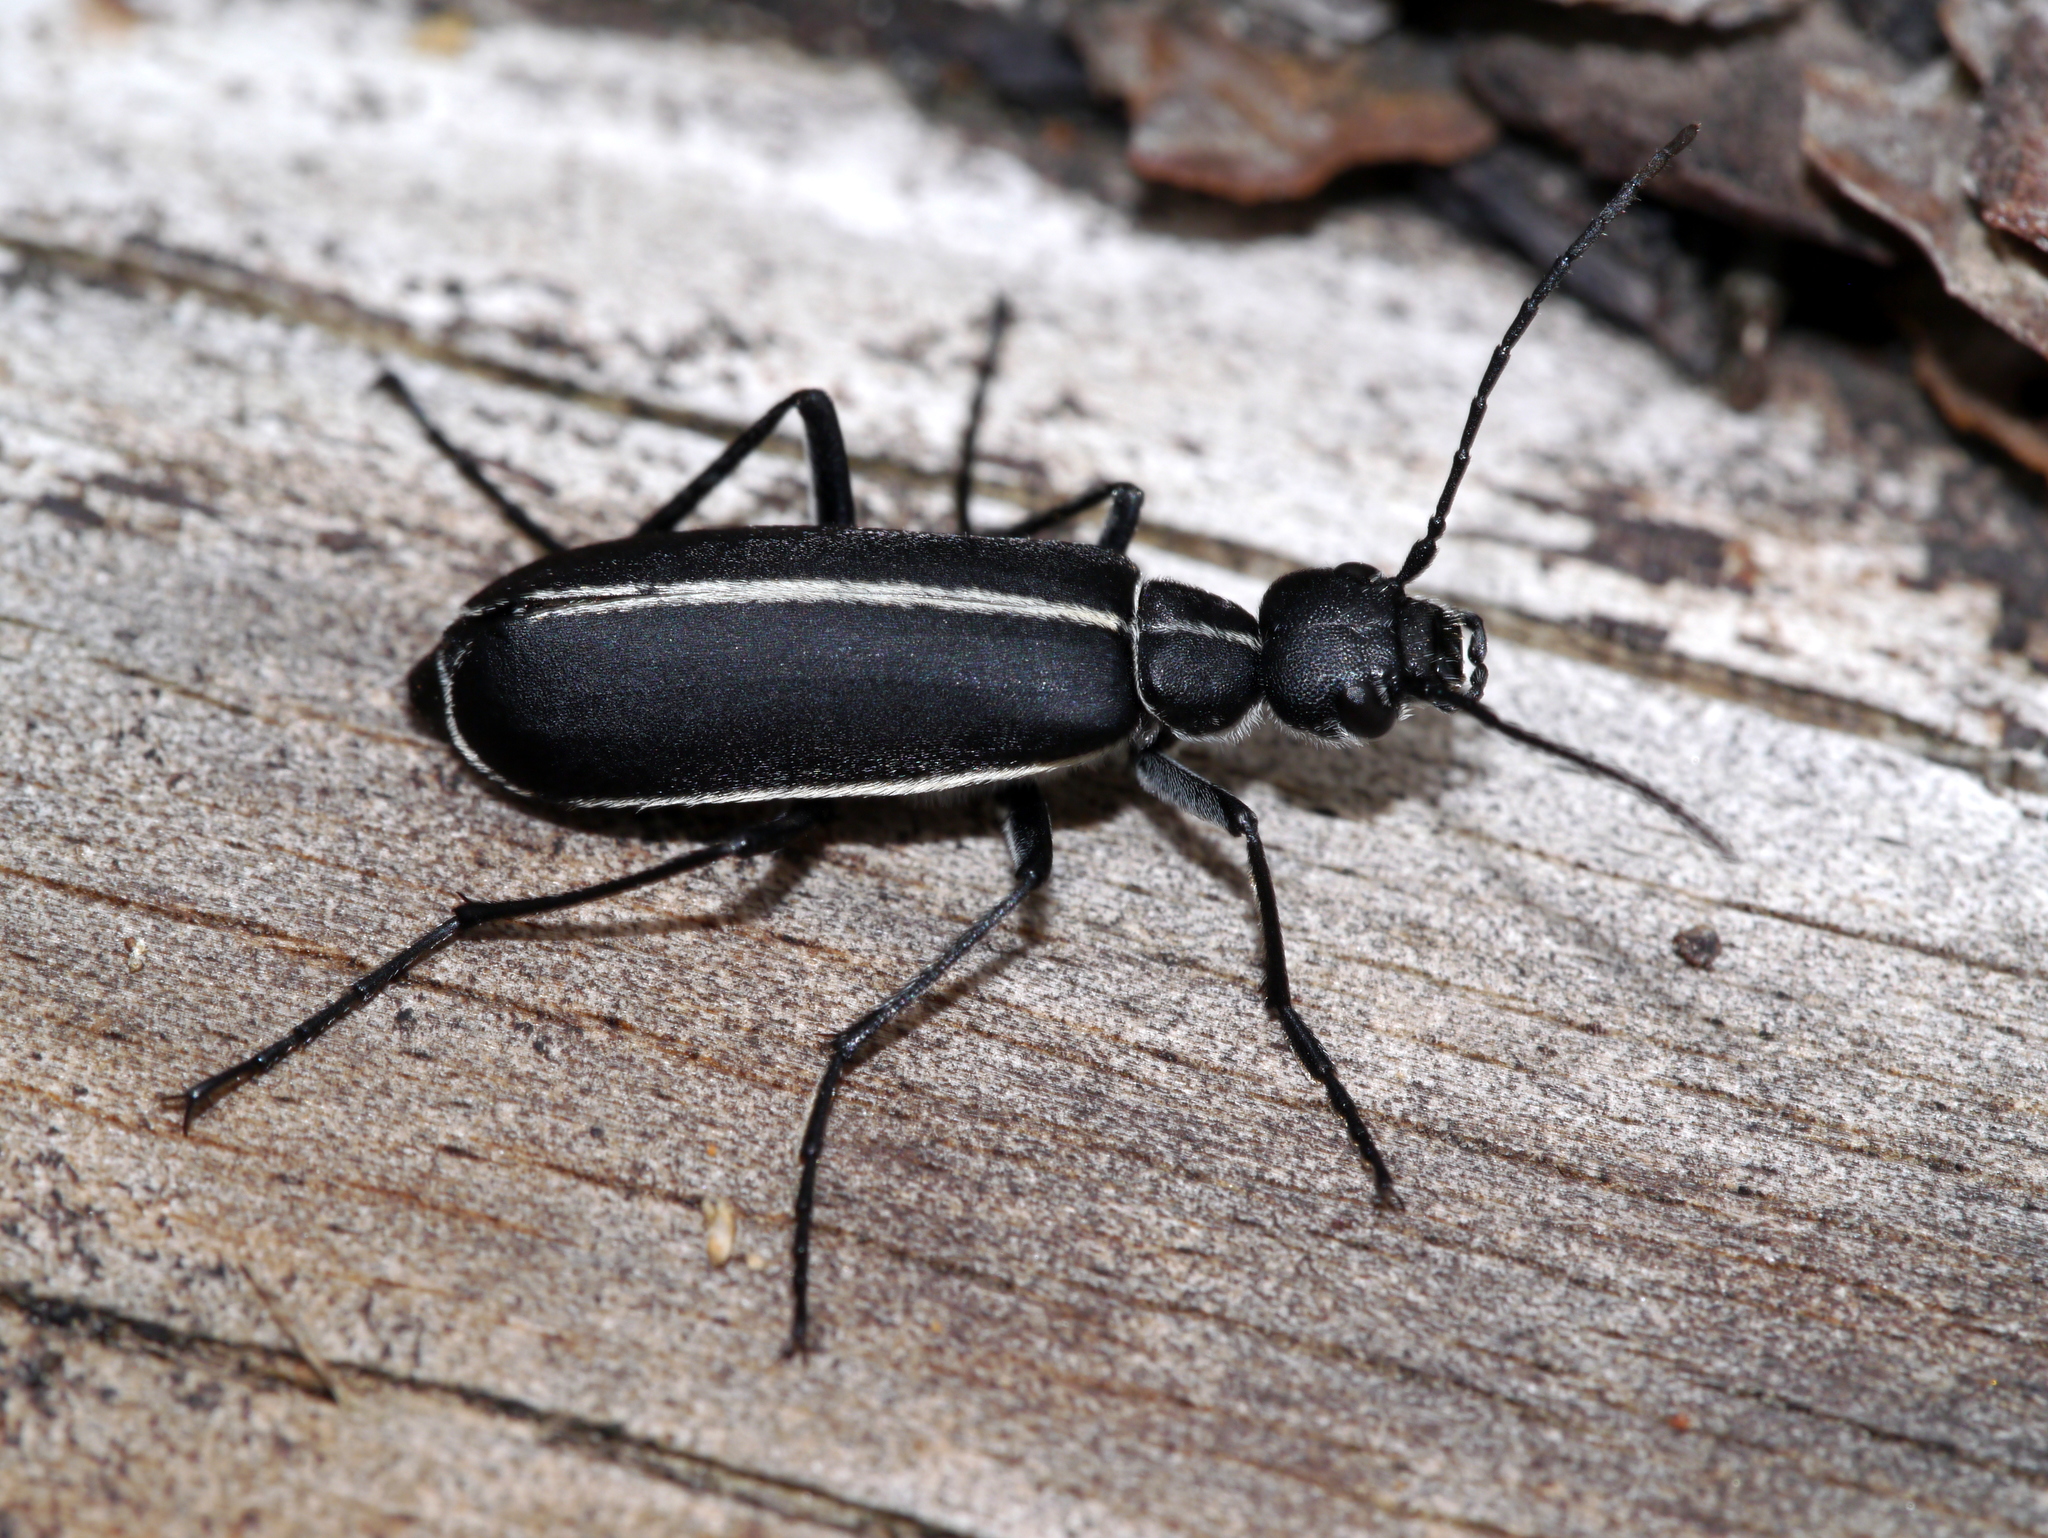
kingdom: Animalia
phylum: Arthropoda
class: Insecta
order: Coleoptera
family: Meloidae
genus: Epicauta
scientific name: Epicauta cinctipennis
